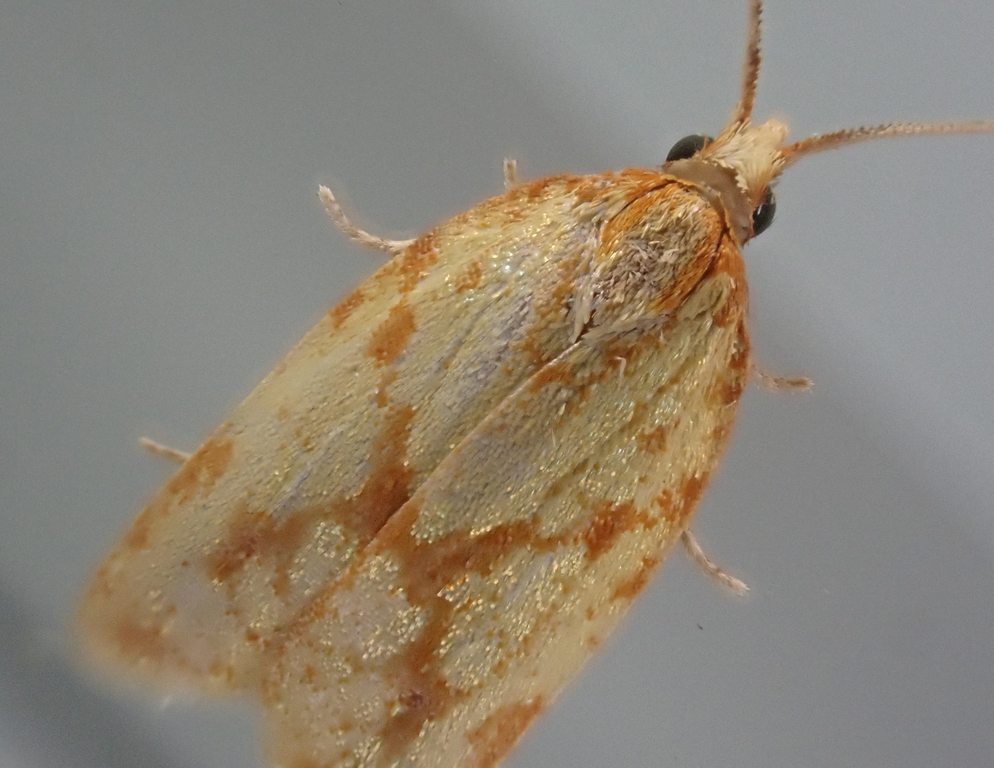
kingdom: Animalia
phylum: Arthropoda
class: Insecta
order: Lepidoptera
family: Tortricidae
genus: Sparganothis
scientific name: Sparganothis sulfureana
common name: Sparganothis fruitworm moth
